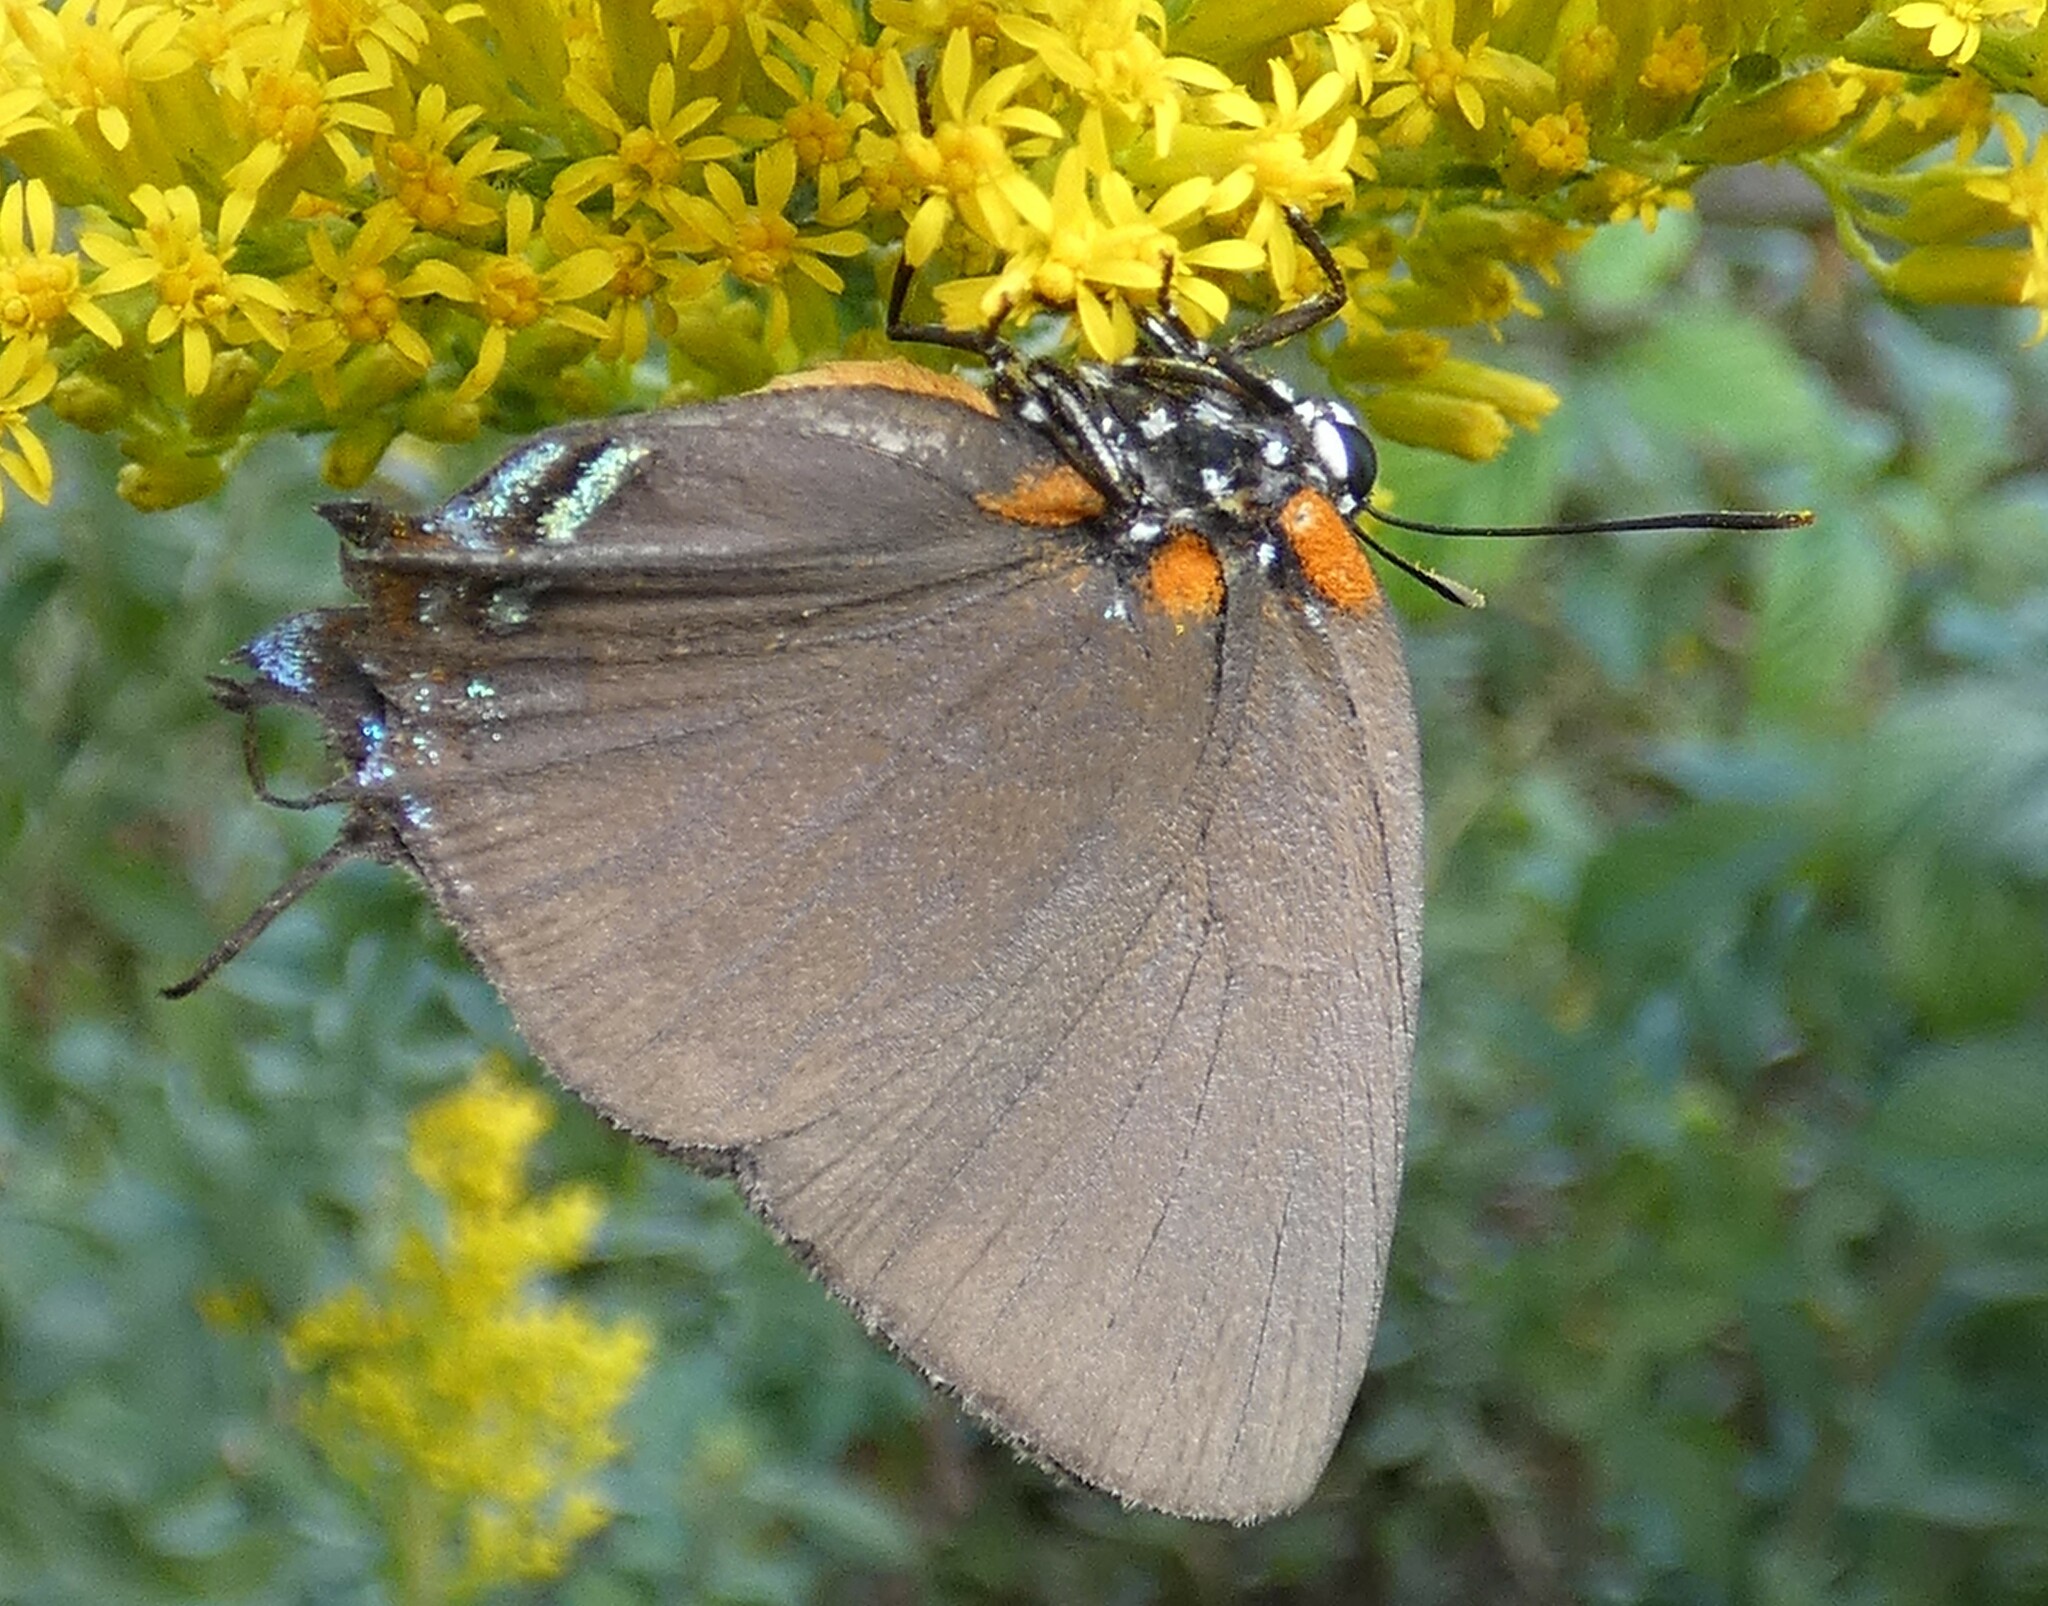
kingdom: Animalia
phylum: Arthropoda
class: Insecta
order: Lepidoptera
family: Lycaenidae
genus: Atlides
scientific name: Atlides halesus
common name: Great purple hairstreak
